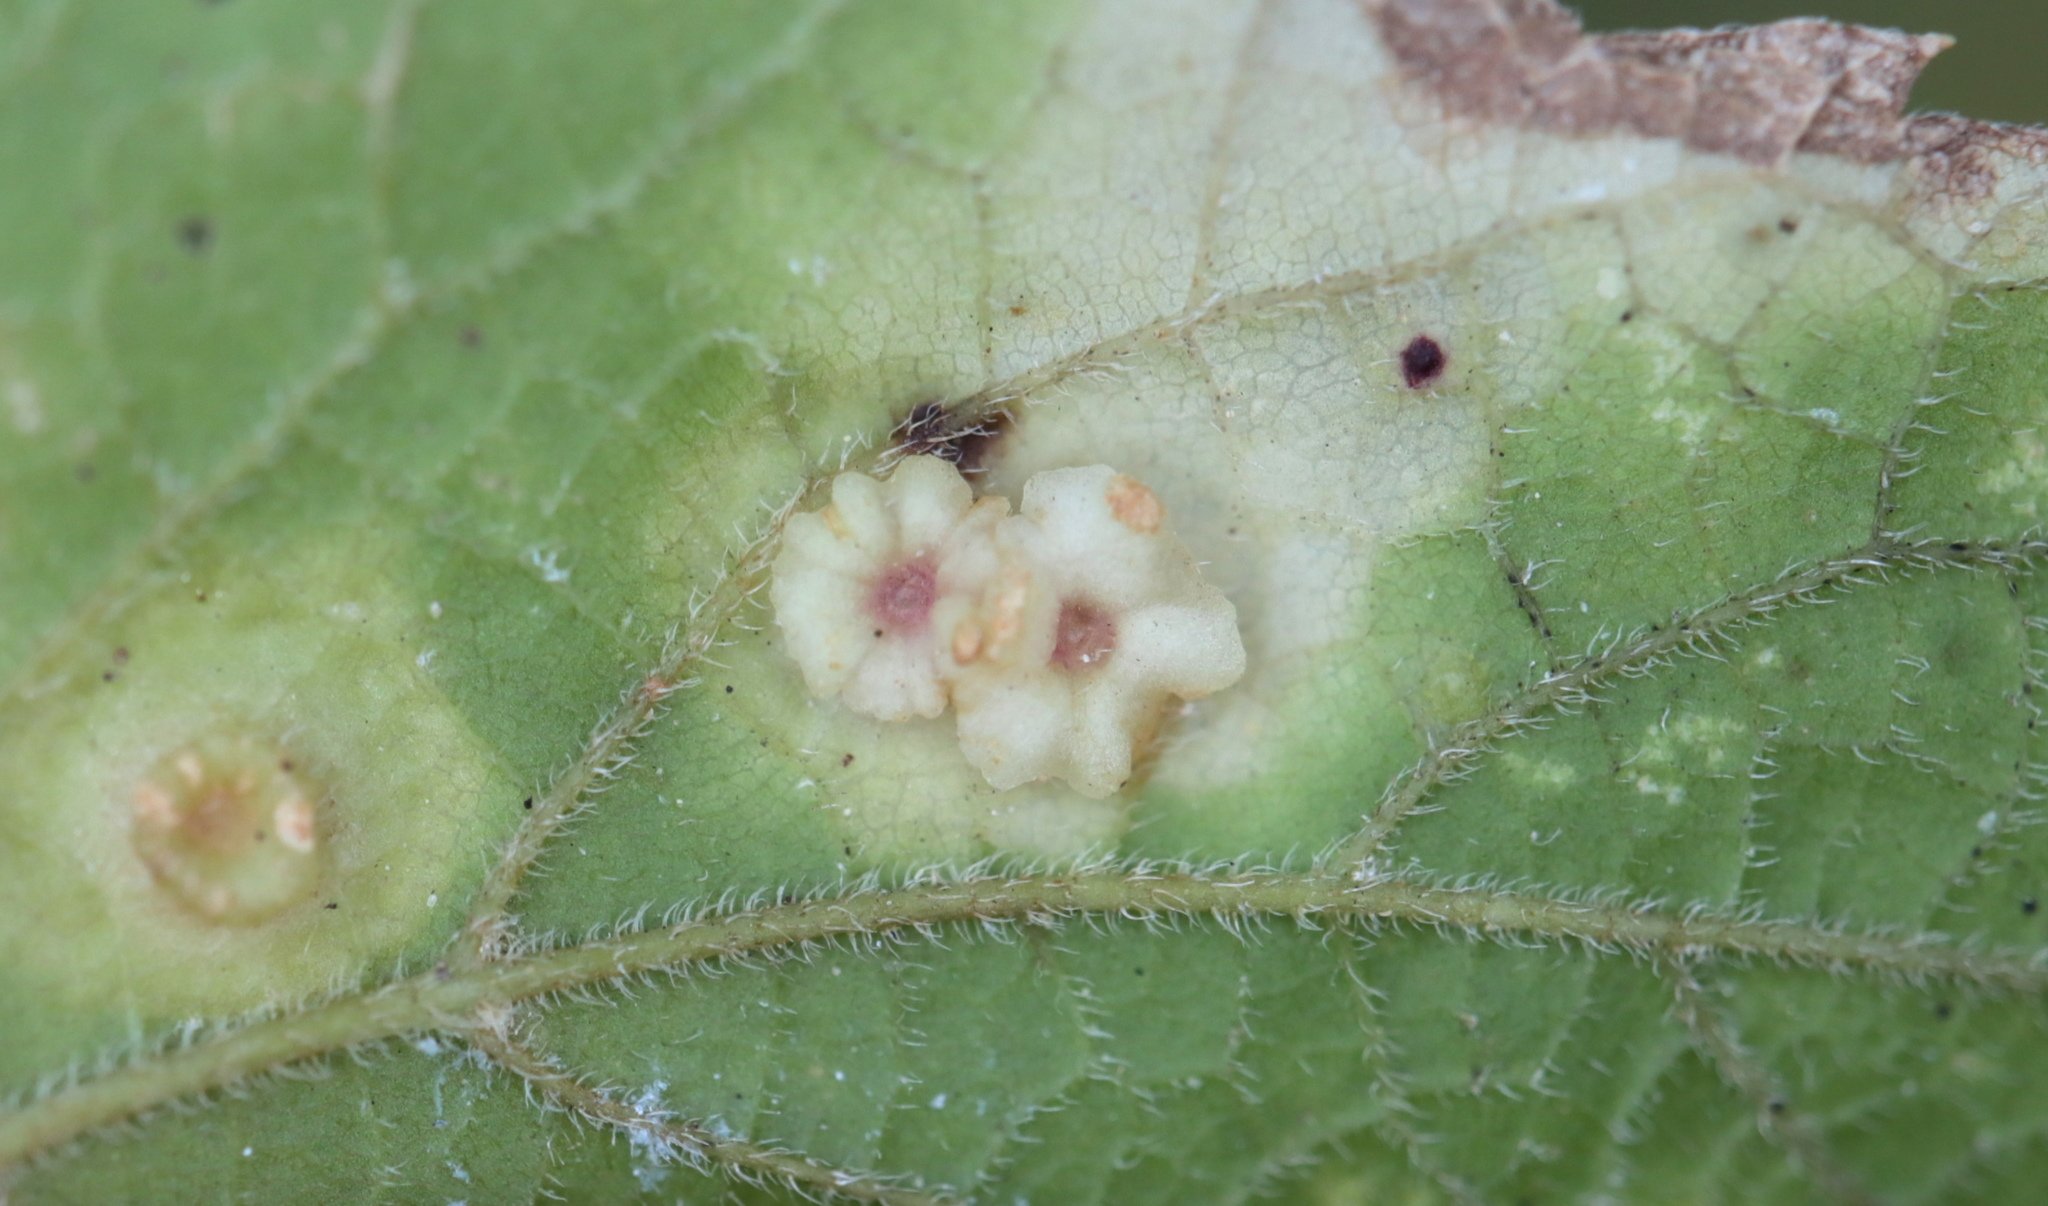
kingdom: Animalia
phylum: Arthropoda
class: Insecta
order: Hemiptera
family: Aphalaridae
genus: Pachypsylla
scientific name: Pachypsylla celtidisasterisca
